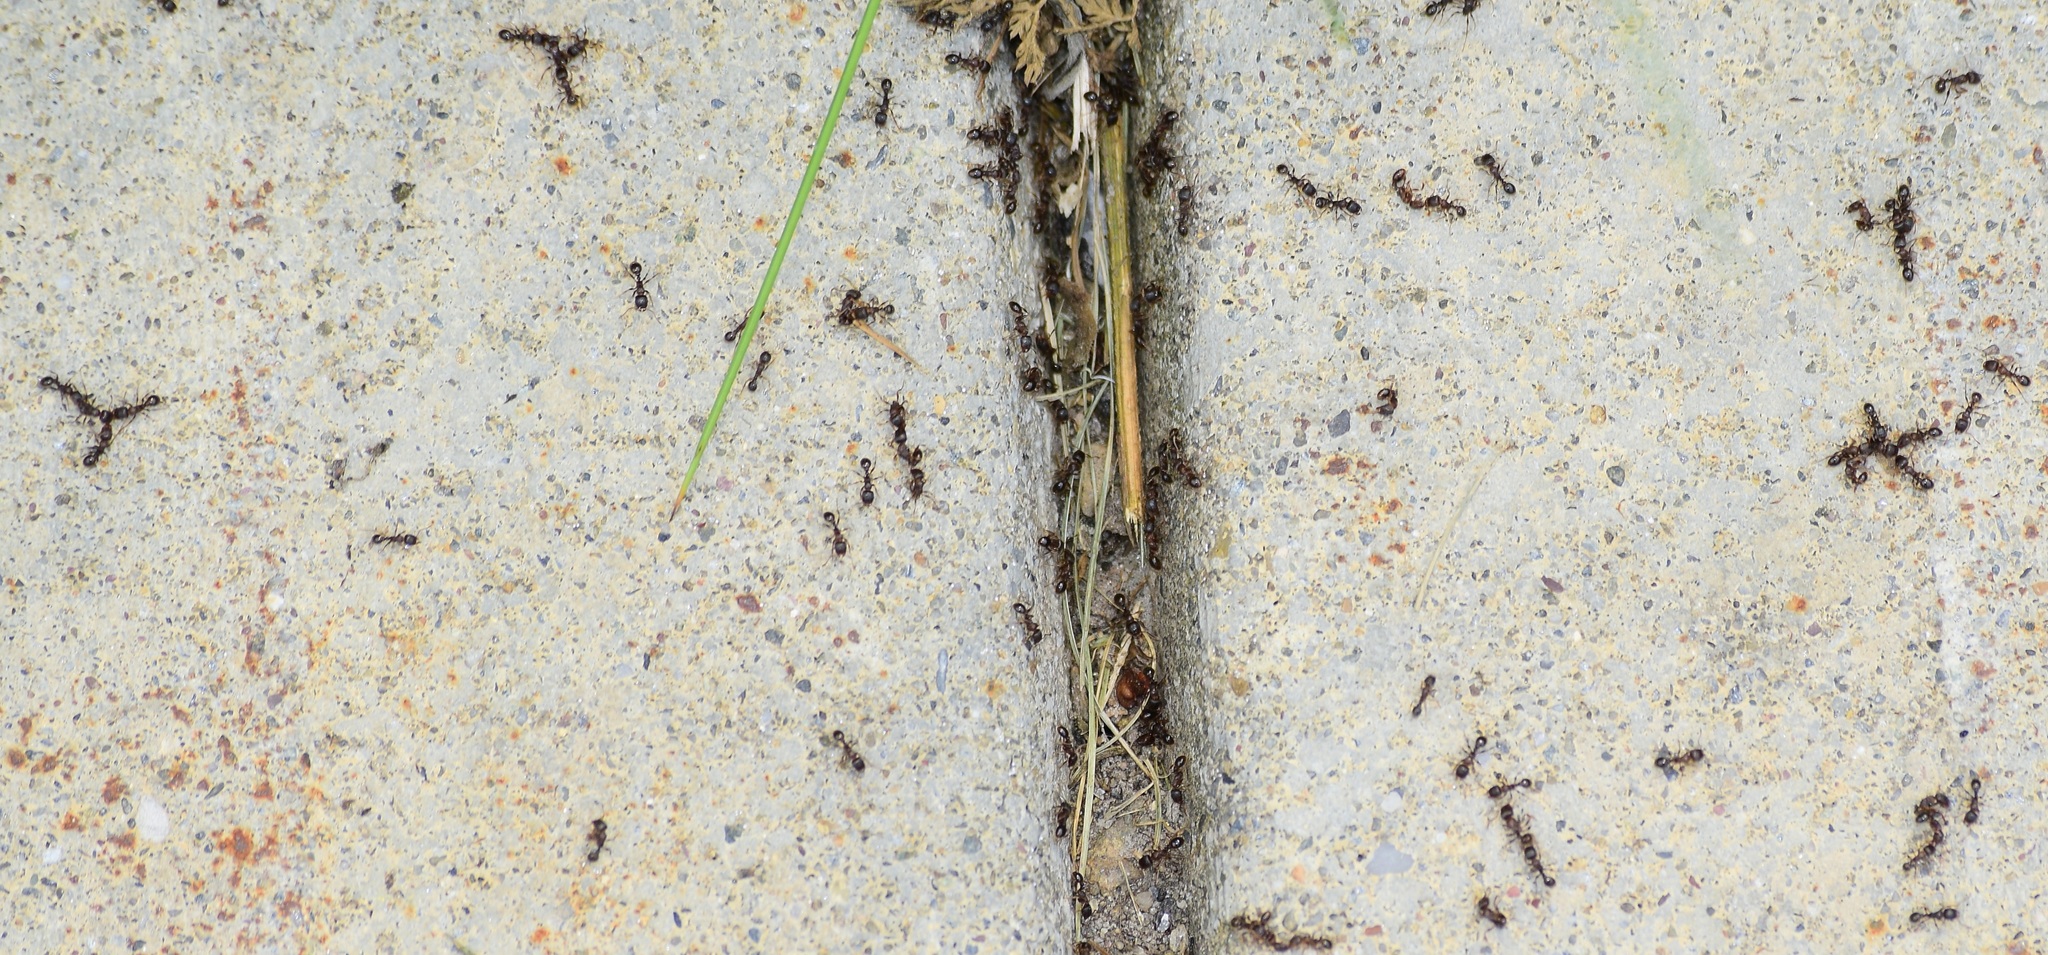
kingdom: Animalia
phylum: Arthropoda
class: Insecta
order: Hymenoptera
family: Formicidae
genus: Tetramorium
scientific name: Tetramorium immigrans
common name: Pavement ant
